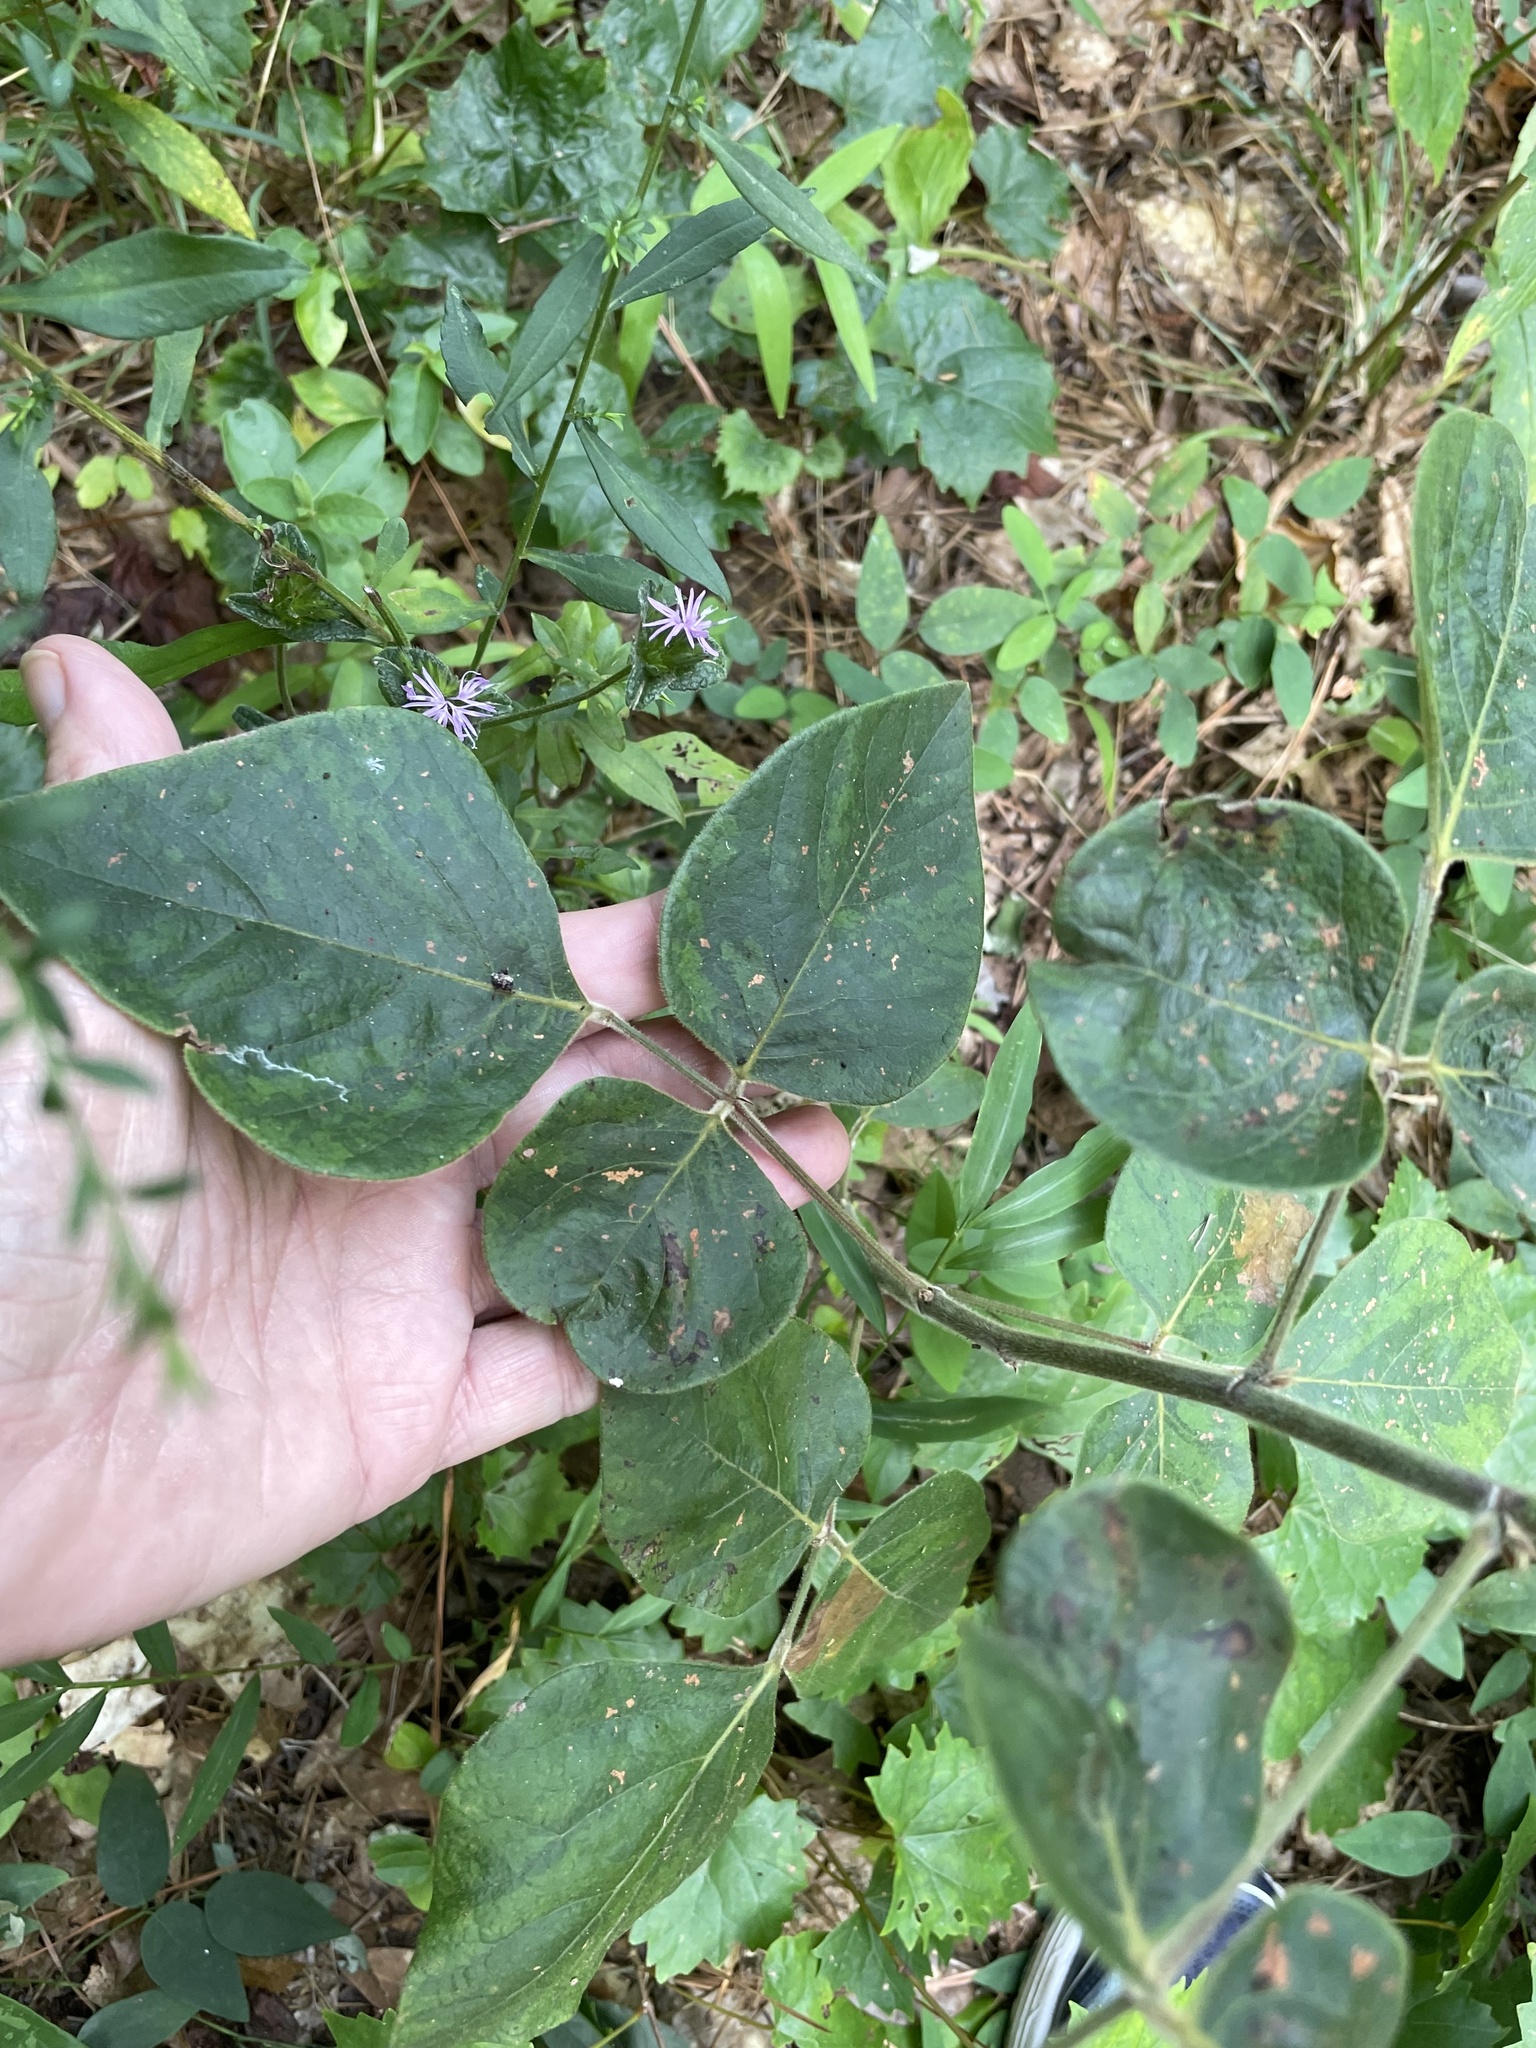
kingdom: Plantae
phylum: Tracheophyta
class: Magnoliopsida
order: Fabales
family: Fabaceae
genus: Desmodium
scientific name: Desmodium viridiflorum
